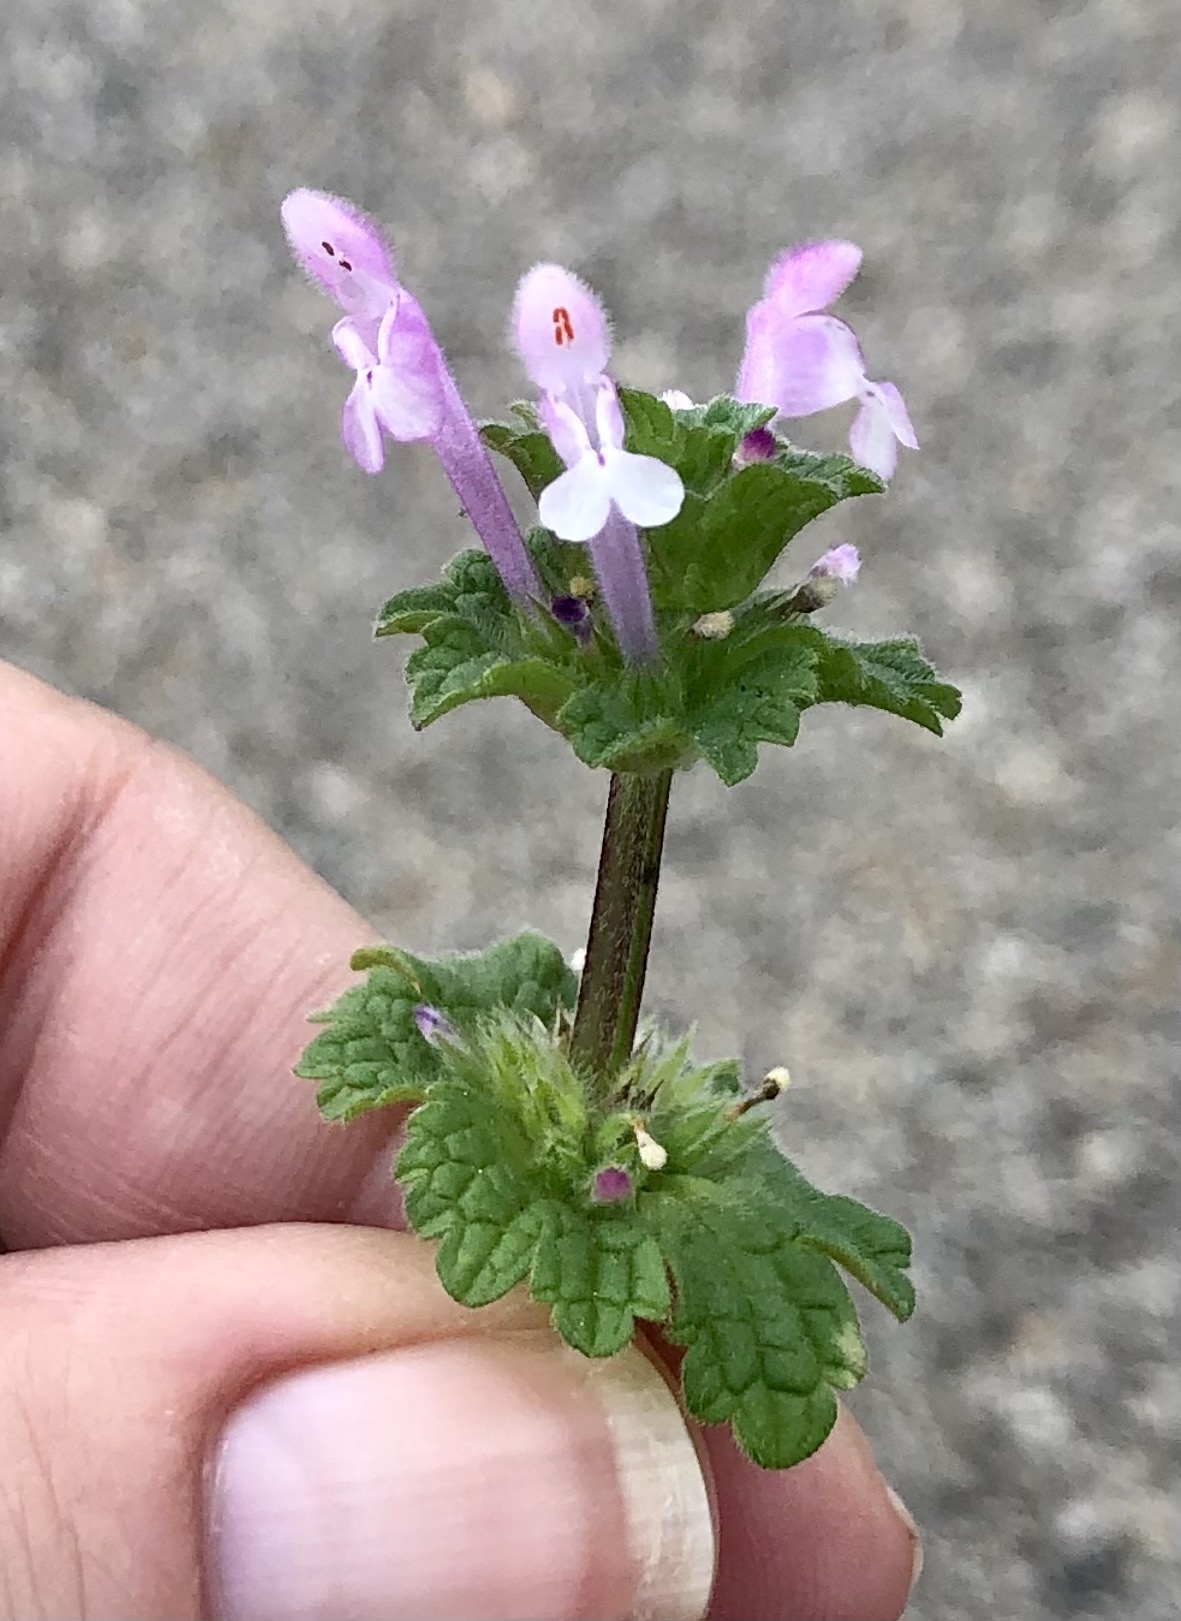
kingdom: Plantae
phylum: Tracheophyta
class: Magnoliopsida
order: Lamiales
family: Lamiaceae
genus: Lamium
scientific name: Lamium amplexicaule
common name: Henbit dead-nettle
